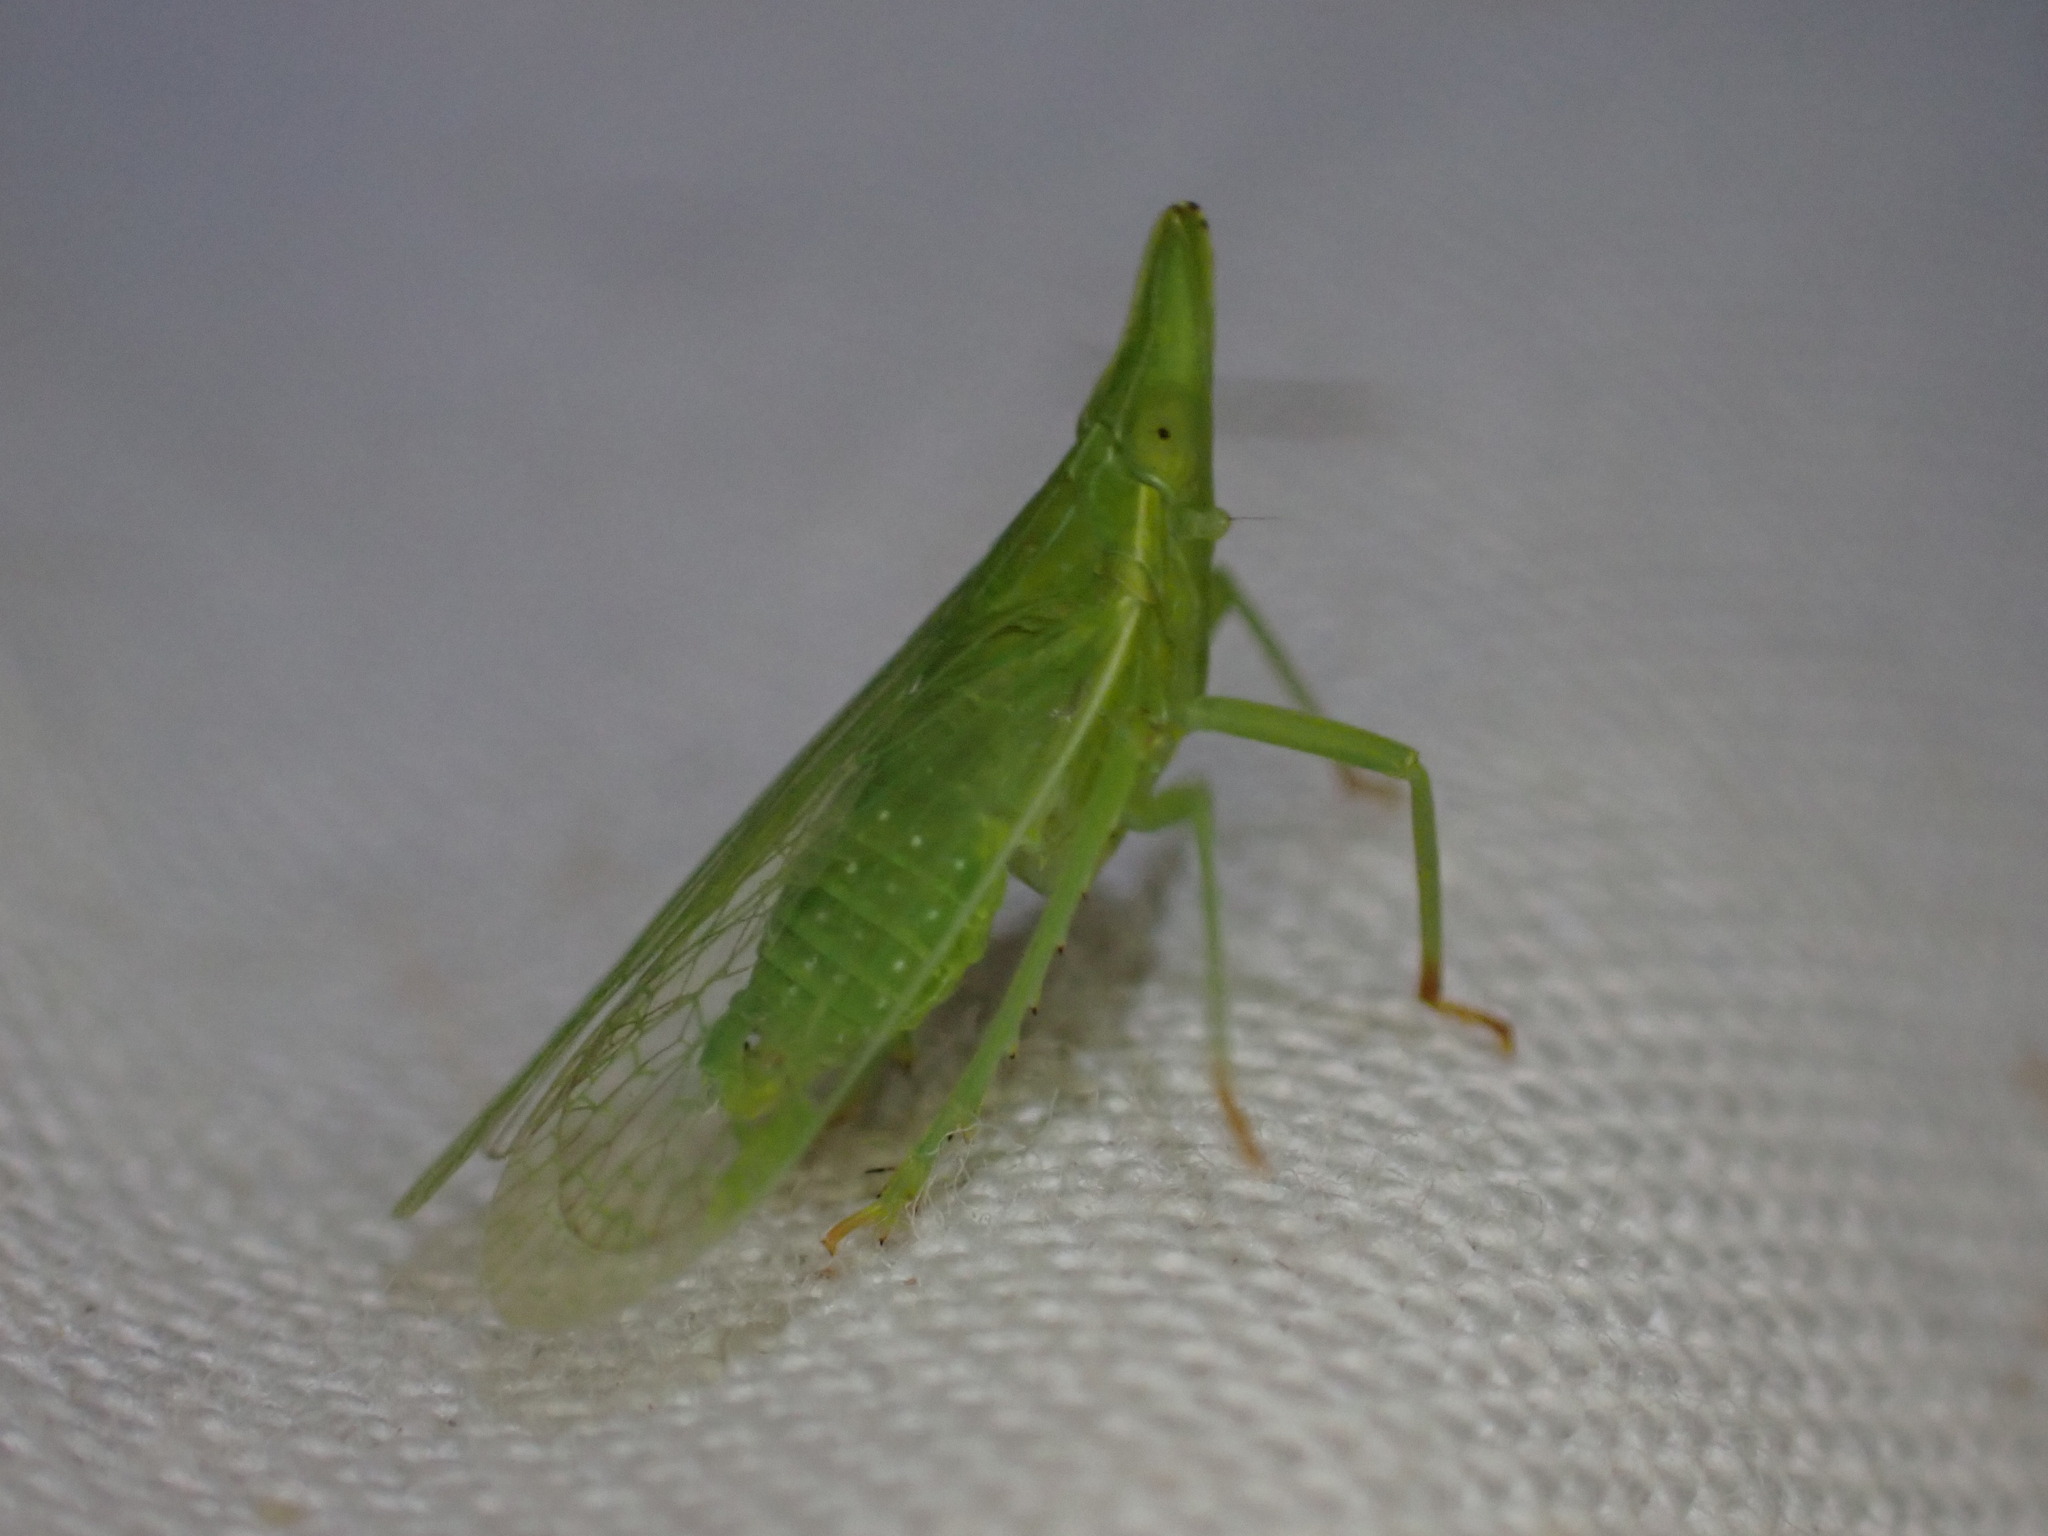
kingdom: Animalia
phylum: Arthropoda
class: Insecta
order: Hemiptera
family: Dictyopharidae
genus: Dictyophara
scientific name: Dictyophara europaea
